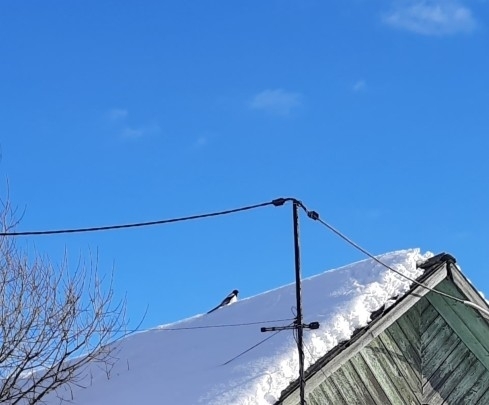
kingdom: Animalia
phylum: Chordata
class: Aves
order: Passeriformes
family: Corvidae
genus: Pica
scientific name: Pica pica
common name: Eurasian magpie
